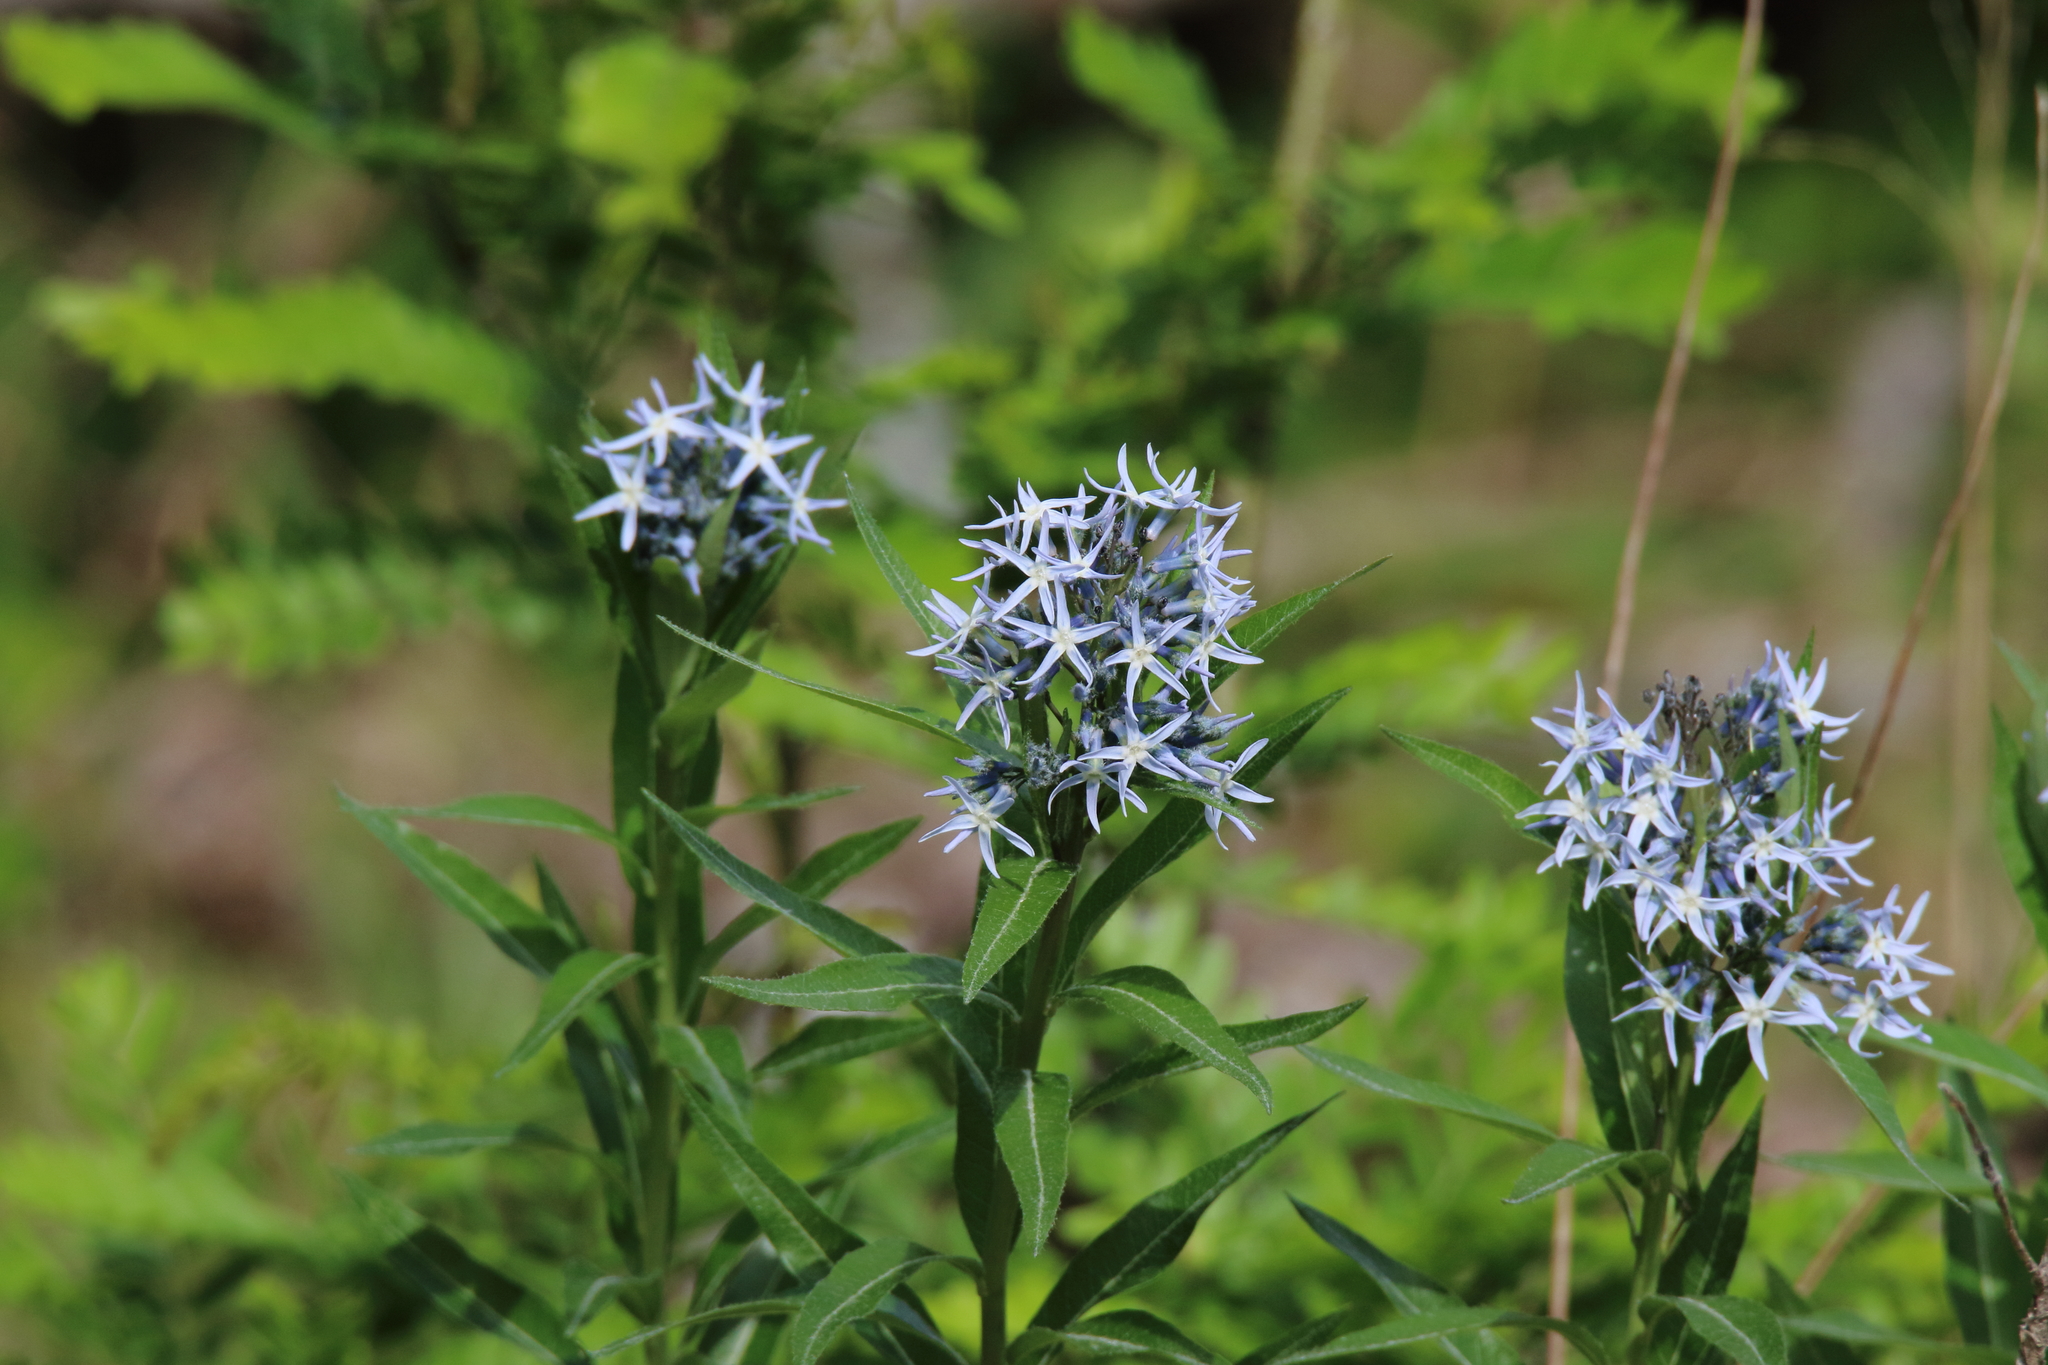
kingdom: Plantae
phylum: Tracheophyta
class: Magnoliopsida
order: Gentianales
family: Apocynaceae
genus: Amsonia
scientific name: Amsonia tabernaemontana
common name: Texas-star
